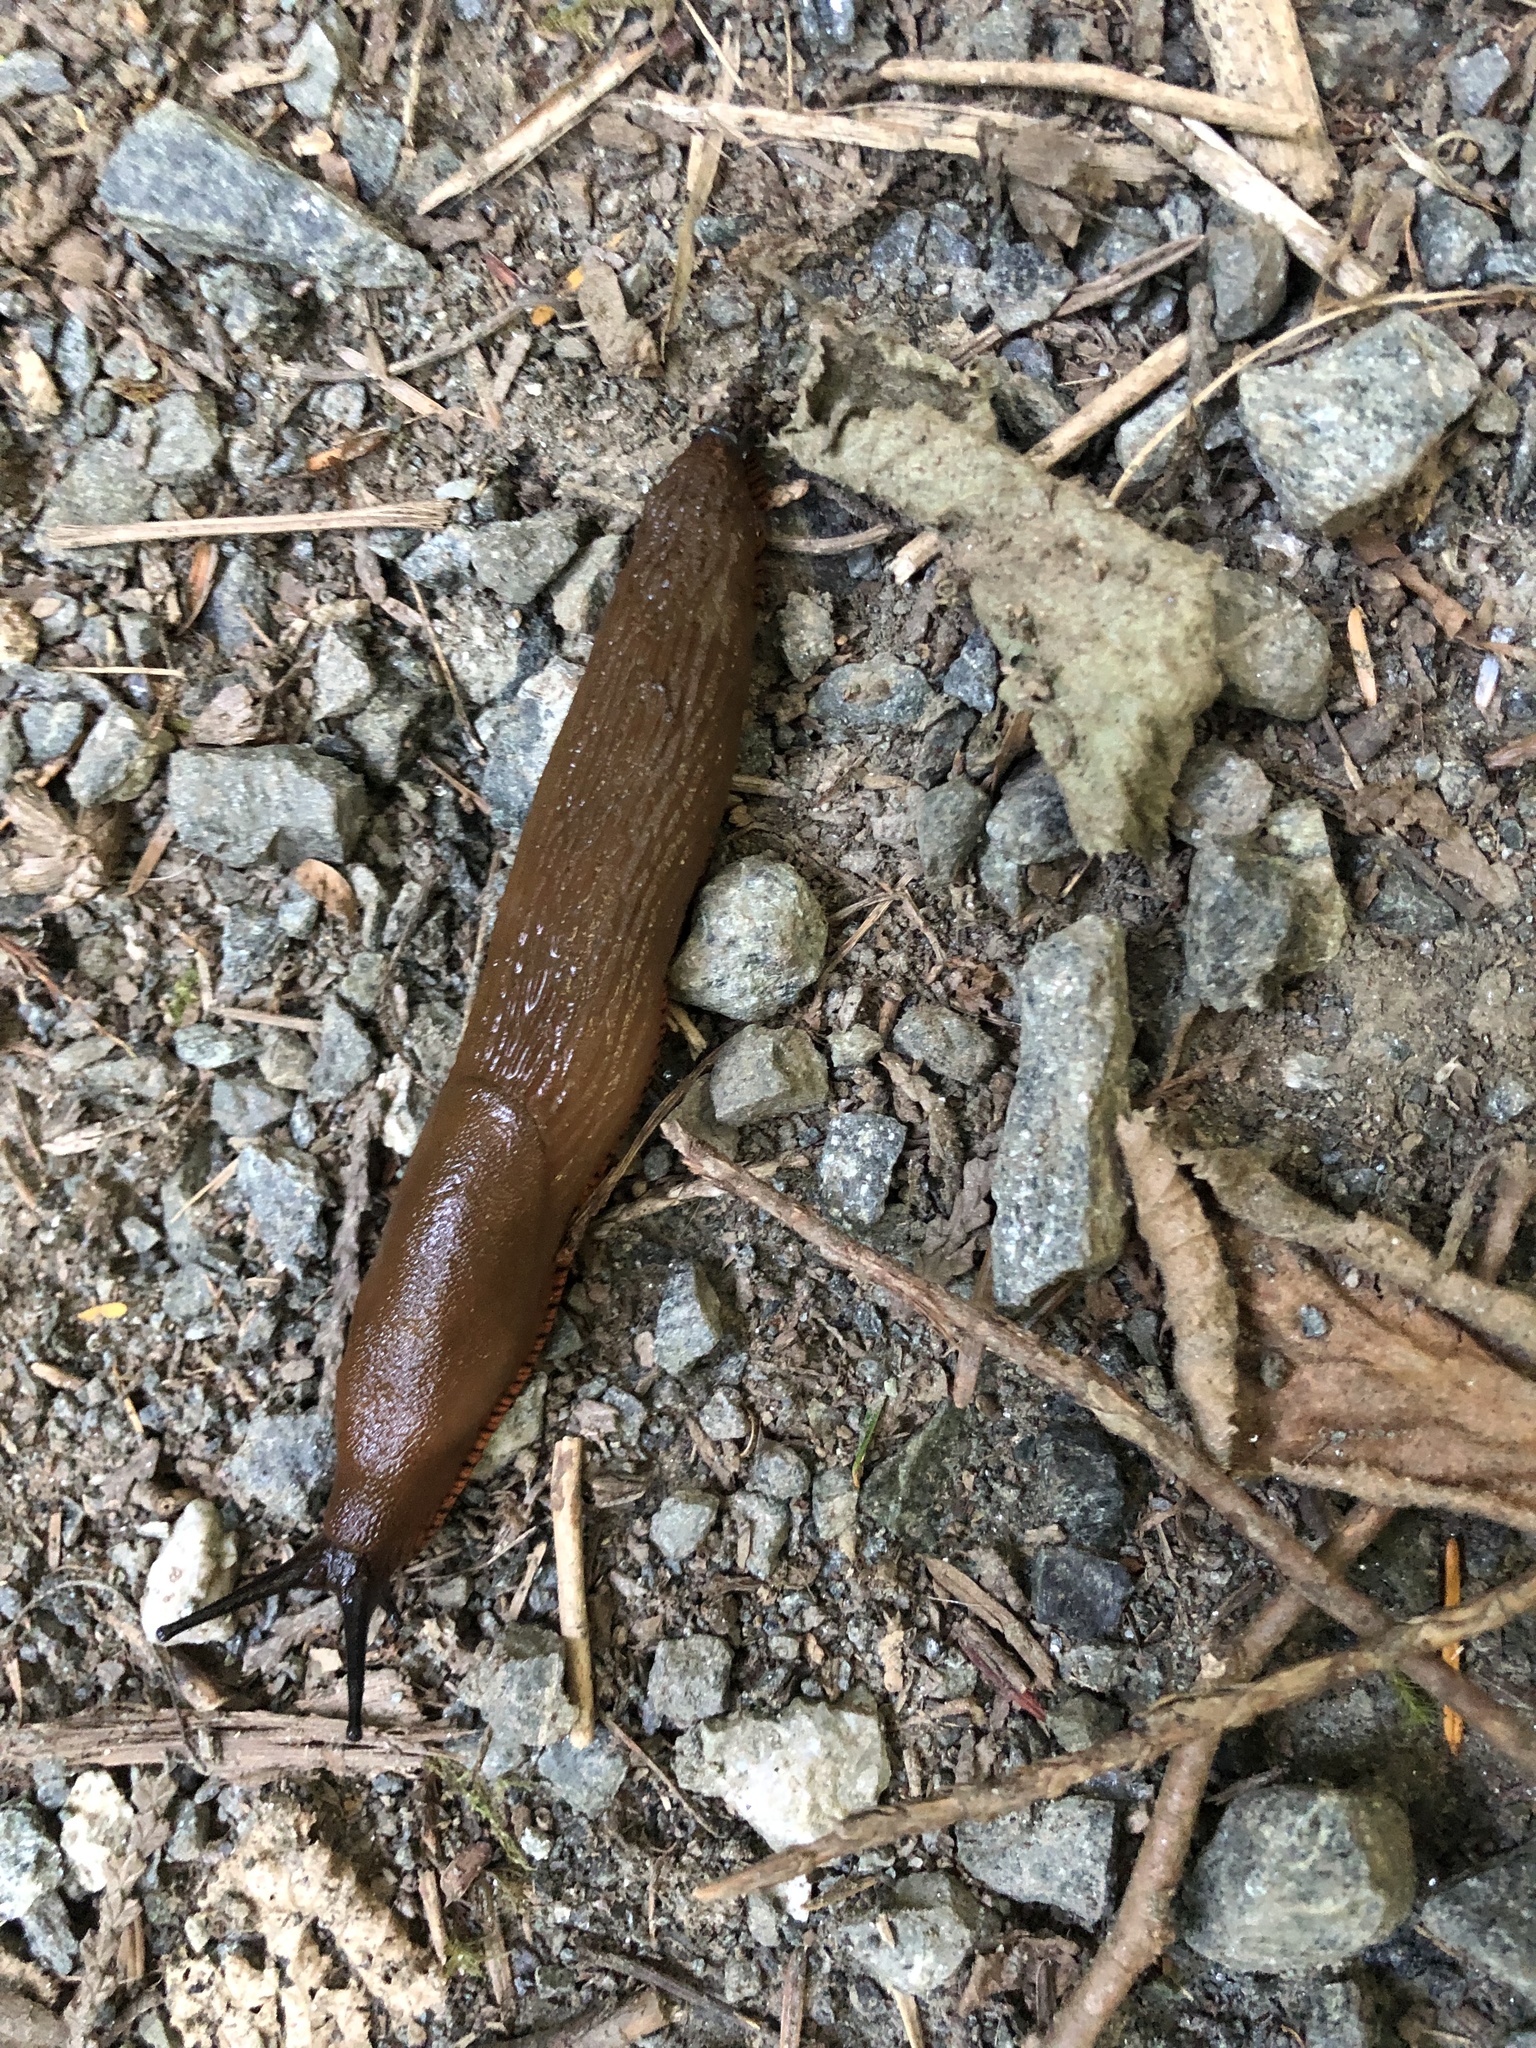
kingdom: Animalia
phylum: Mollusca
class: Gastropoda
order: Stylommatophora
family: Arionidae
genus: Arion
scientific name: Arion rufus
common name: Chocolate arion
